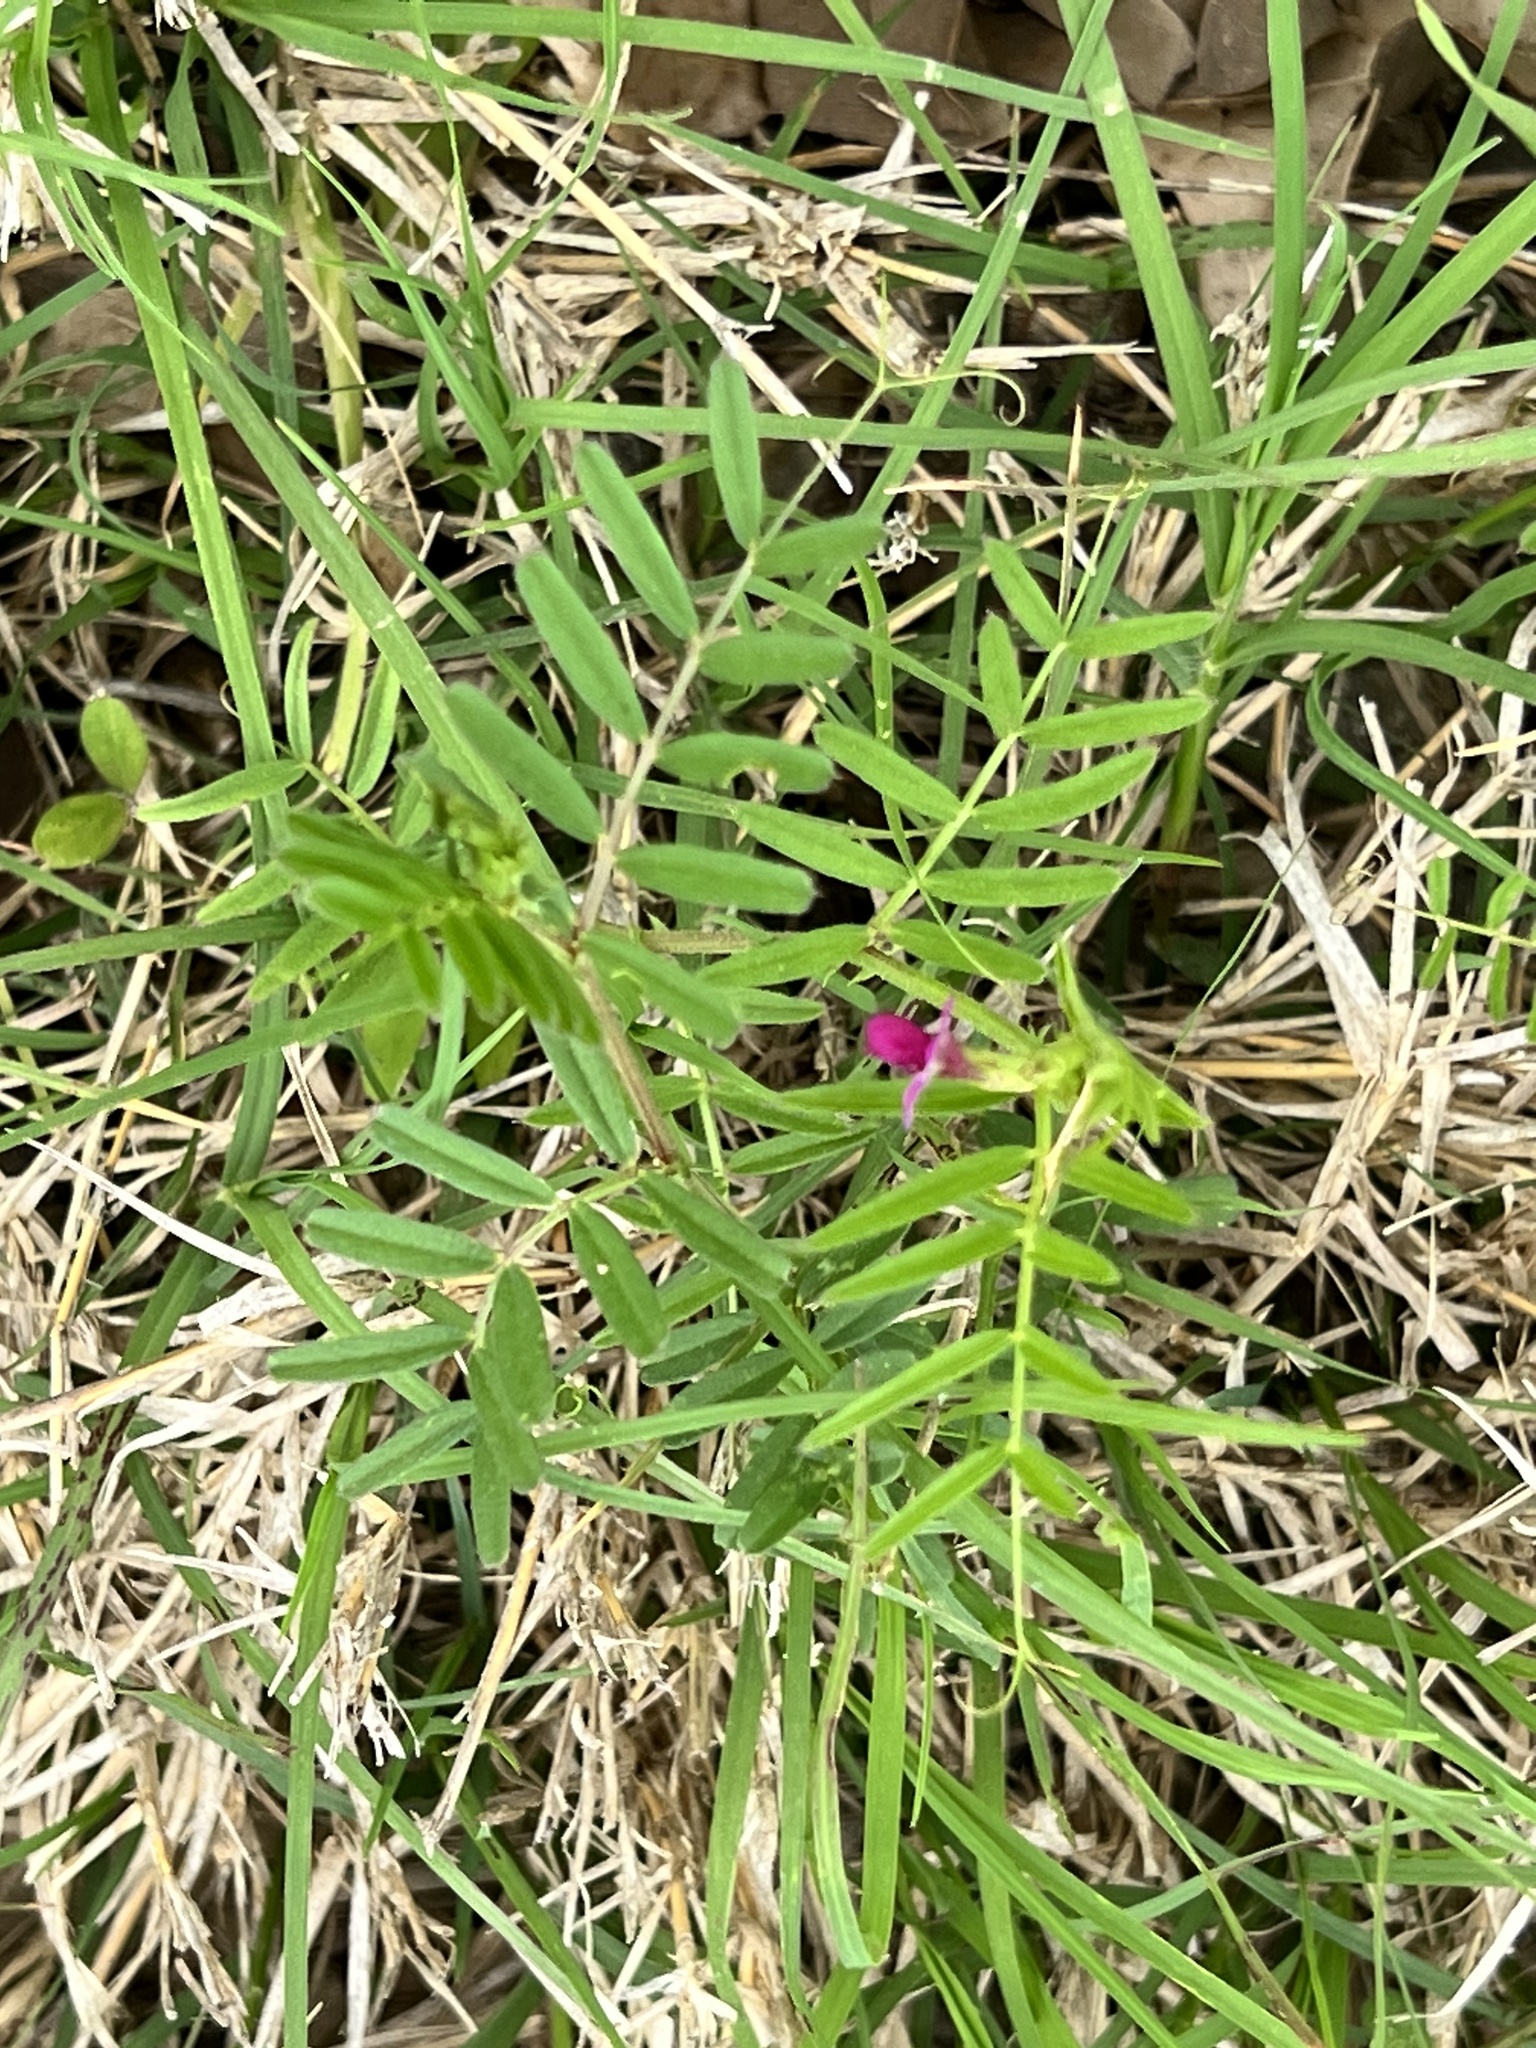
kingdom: Plantae
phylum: Tracheophyta
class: Magnoliopsida
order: Fabales
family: Fabaceae
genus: Vicia
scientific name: Vicia sativa
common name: Garden vetch
